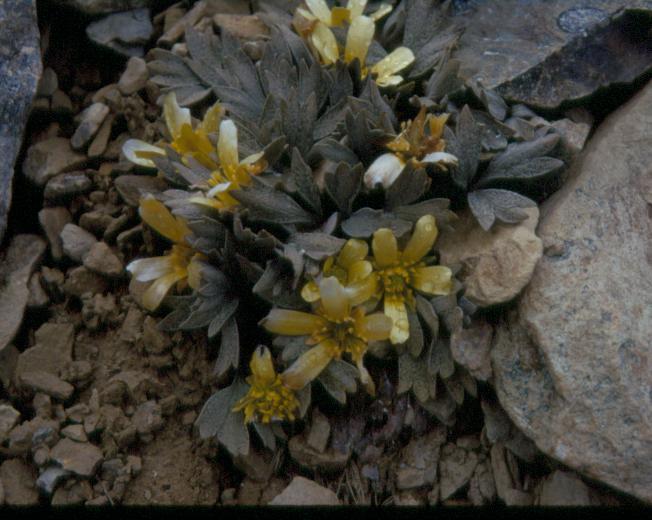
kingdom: Plantae
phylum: Tracheophyta
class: Magnoliopsida
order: Ranunculales
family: Ranunculaceae
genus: Ranunculus
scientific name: Ranunculus crithmifolius
